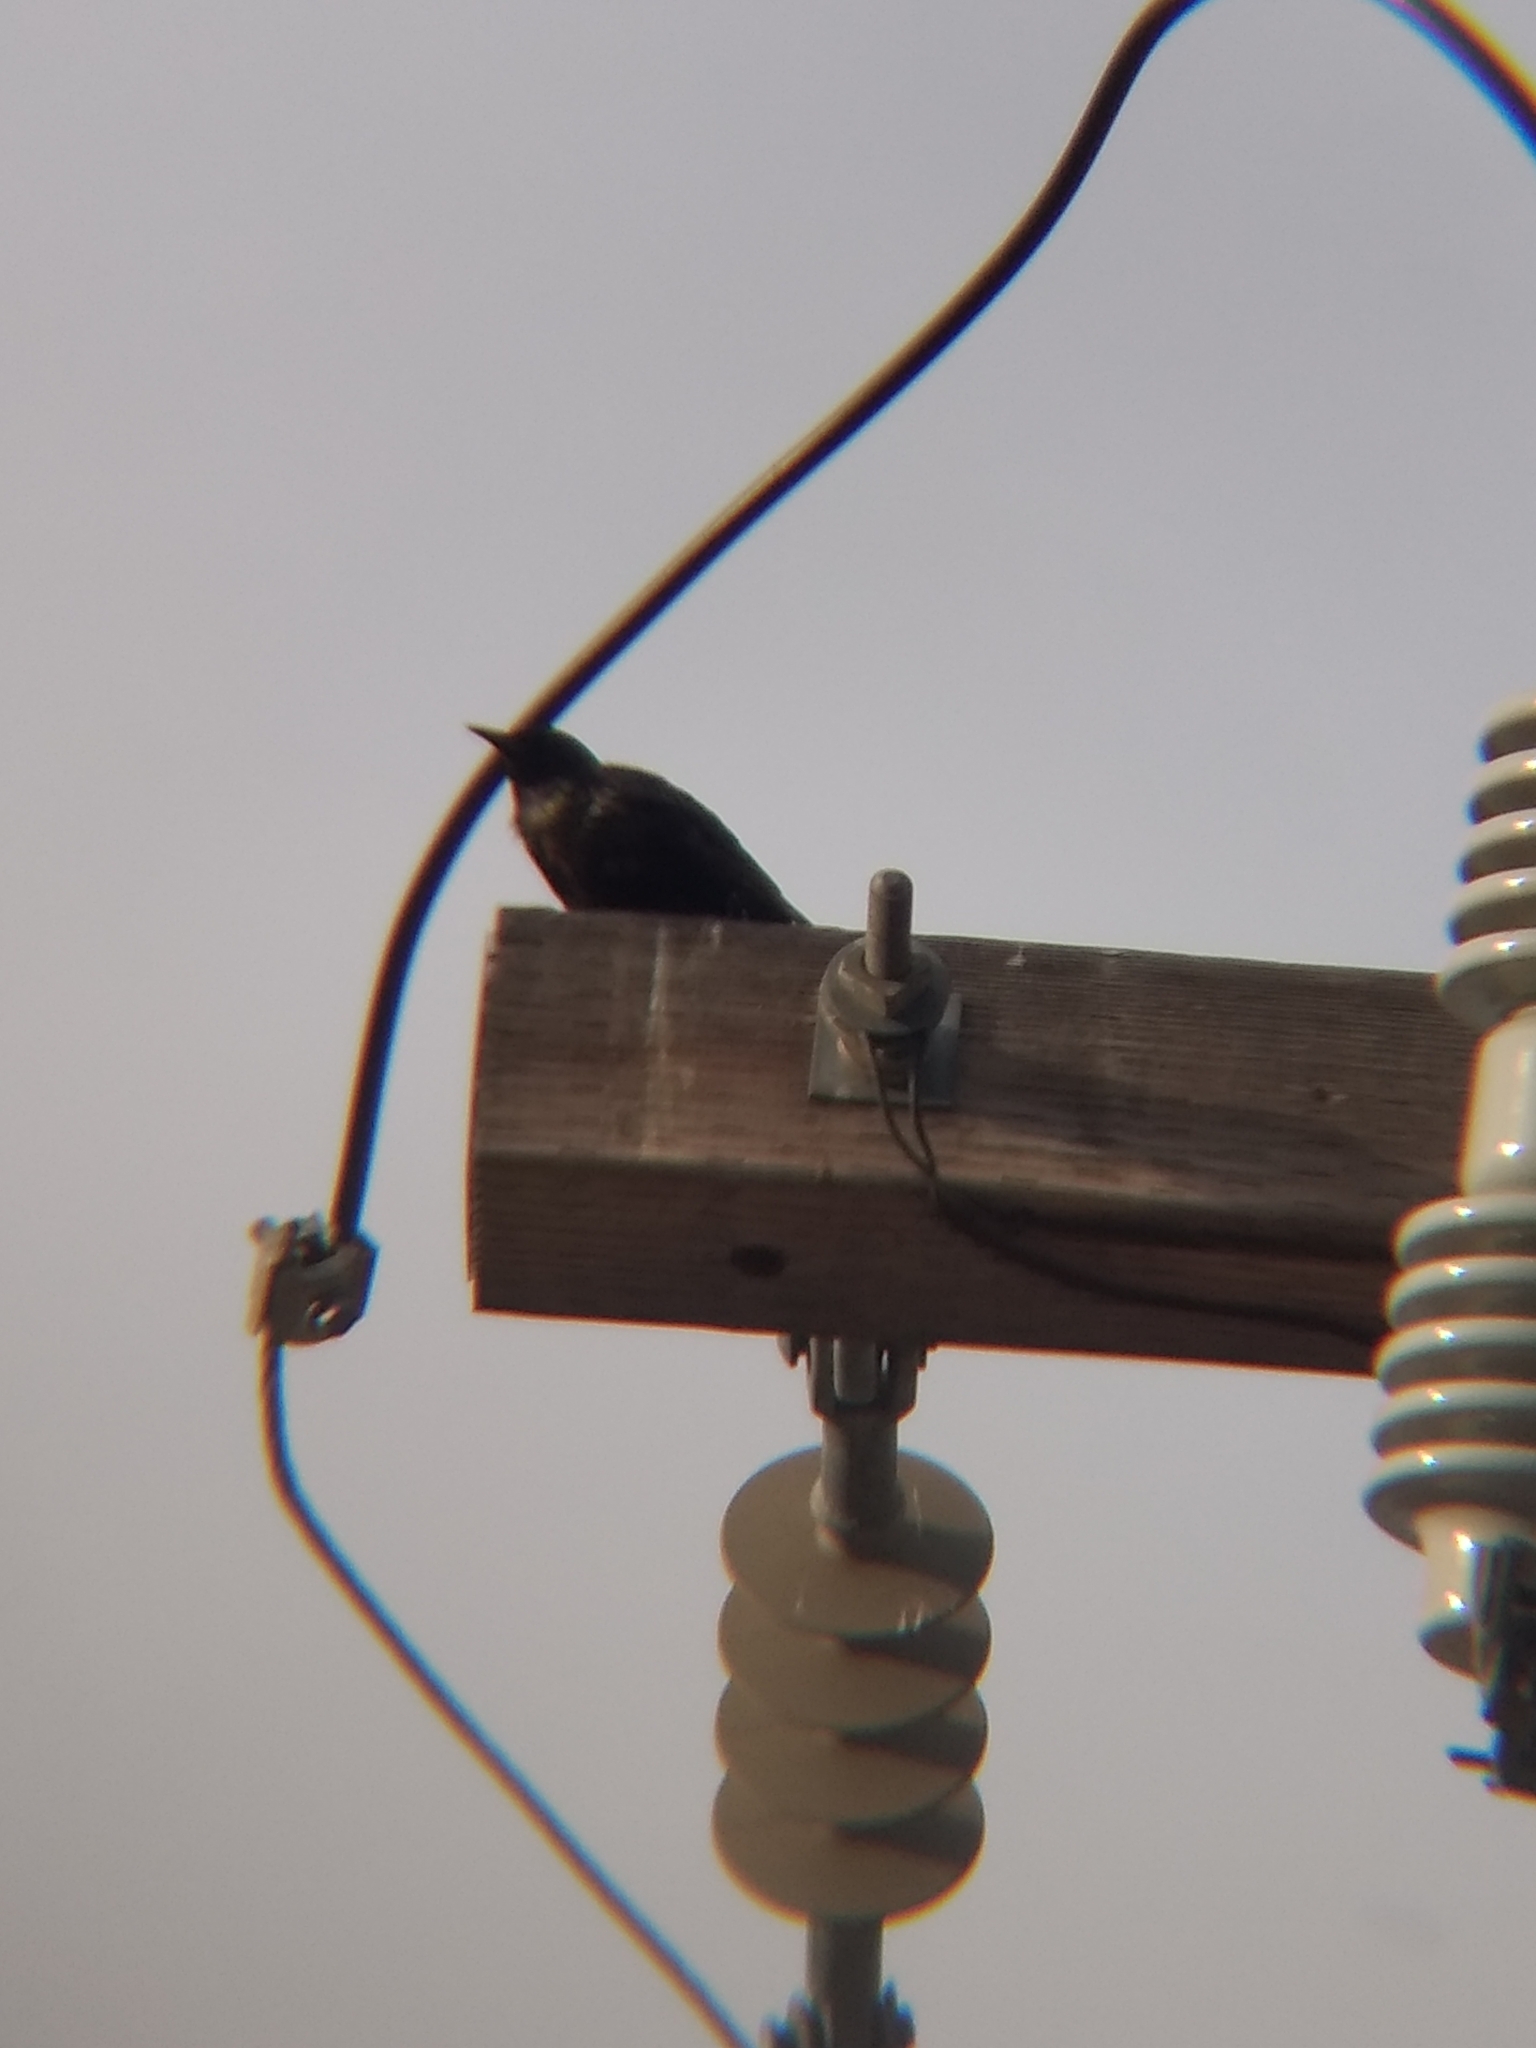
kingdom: Animalia
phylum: Chordata
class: Aves
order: Passeriformes
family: Sturnidae
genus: Sturnus
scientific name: Sturnus vulgaris
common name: Common starling
